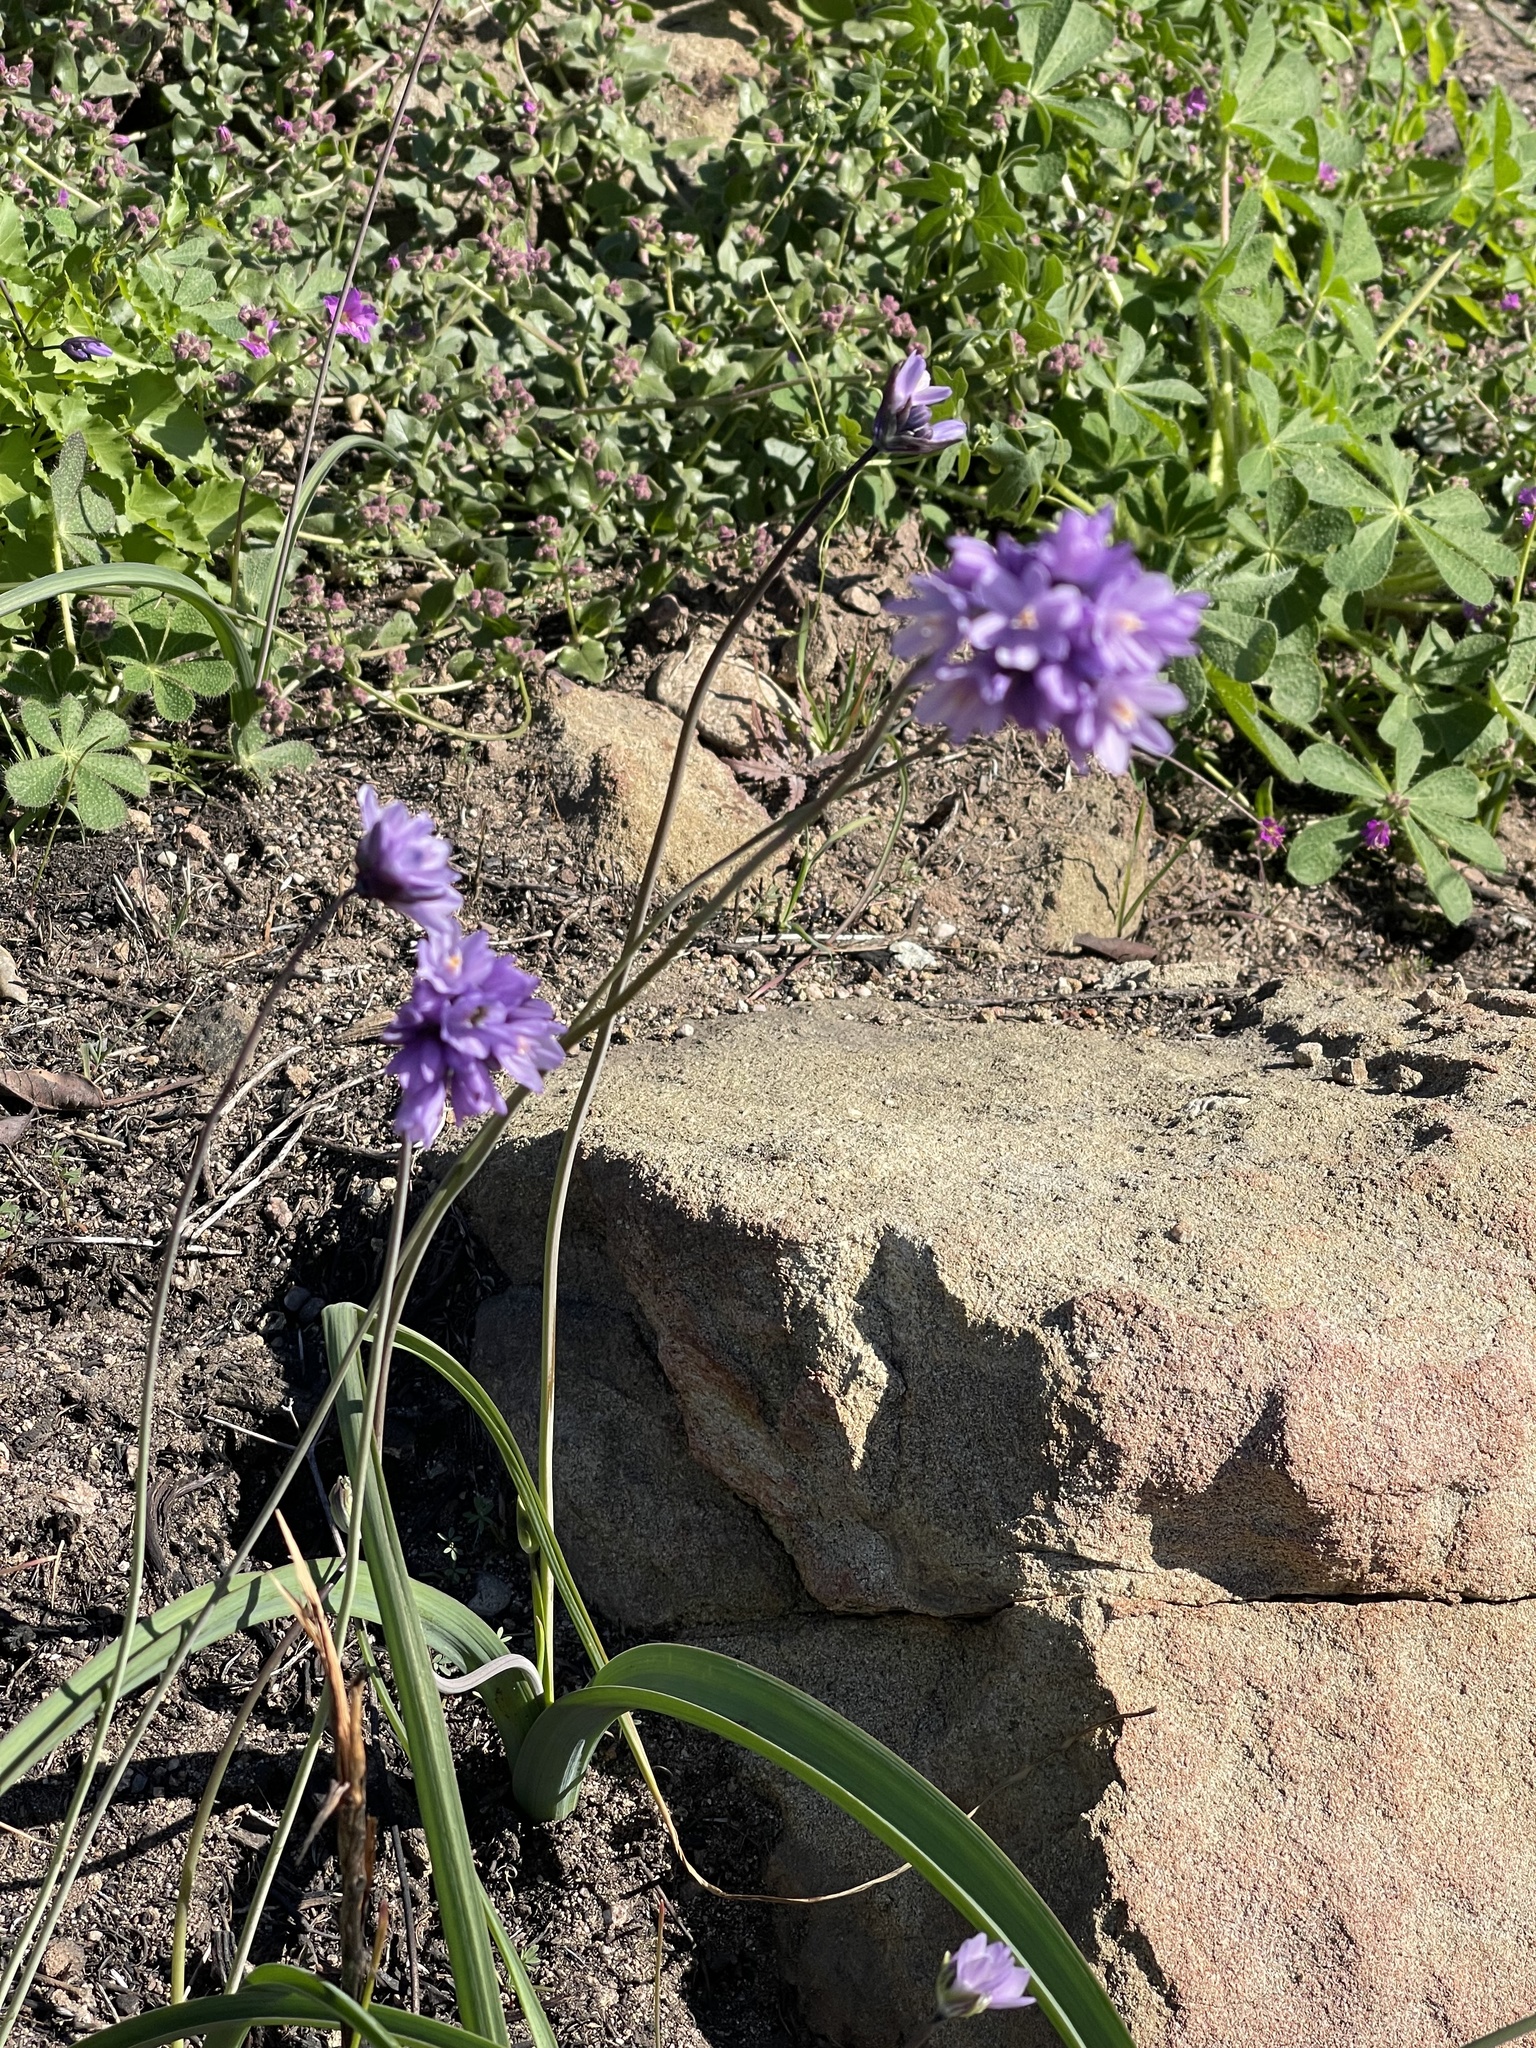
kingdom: Plantae
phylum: Tracheophyta
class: Liliopsida
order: Asparagales
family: Asparagaceae
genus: Dipterostemon
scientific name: Dipterostemon capitatus
